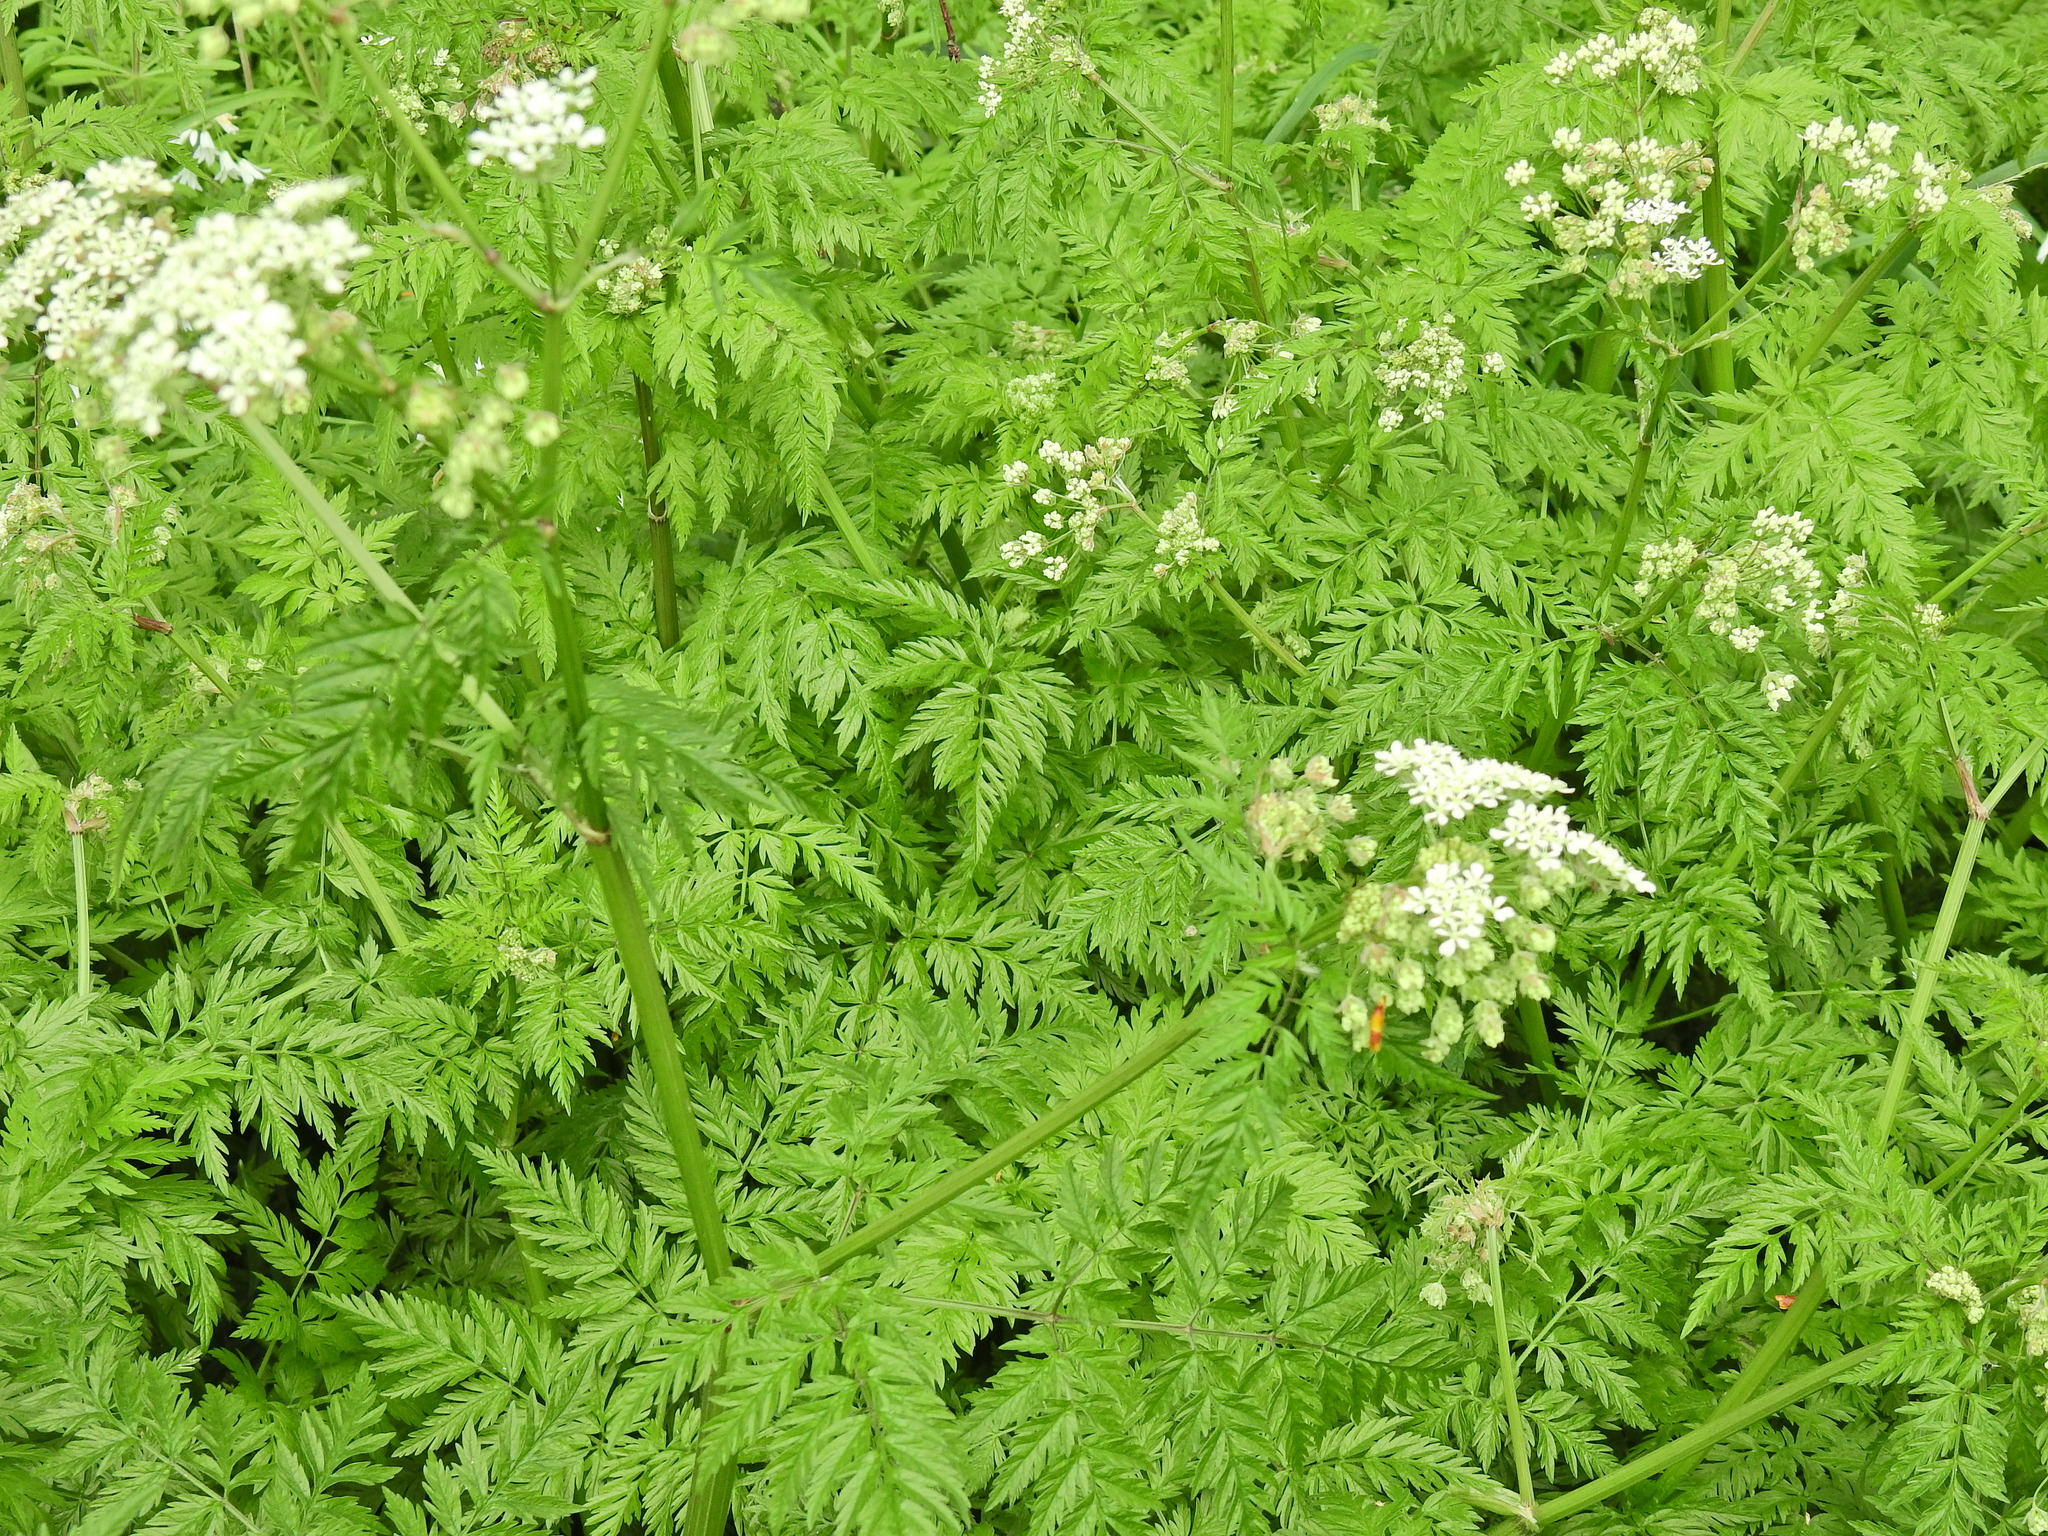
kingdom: Plantae
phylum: Tracheophyta
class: Magnoliopsida
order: Apiales
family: Apiaceae
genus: Anthriscus
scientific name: Anthriscus sylvestris
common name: Cow parsley
